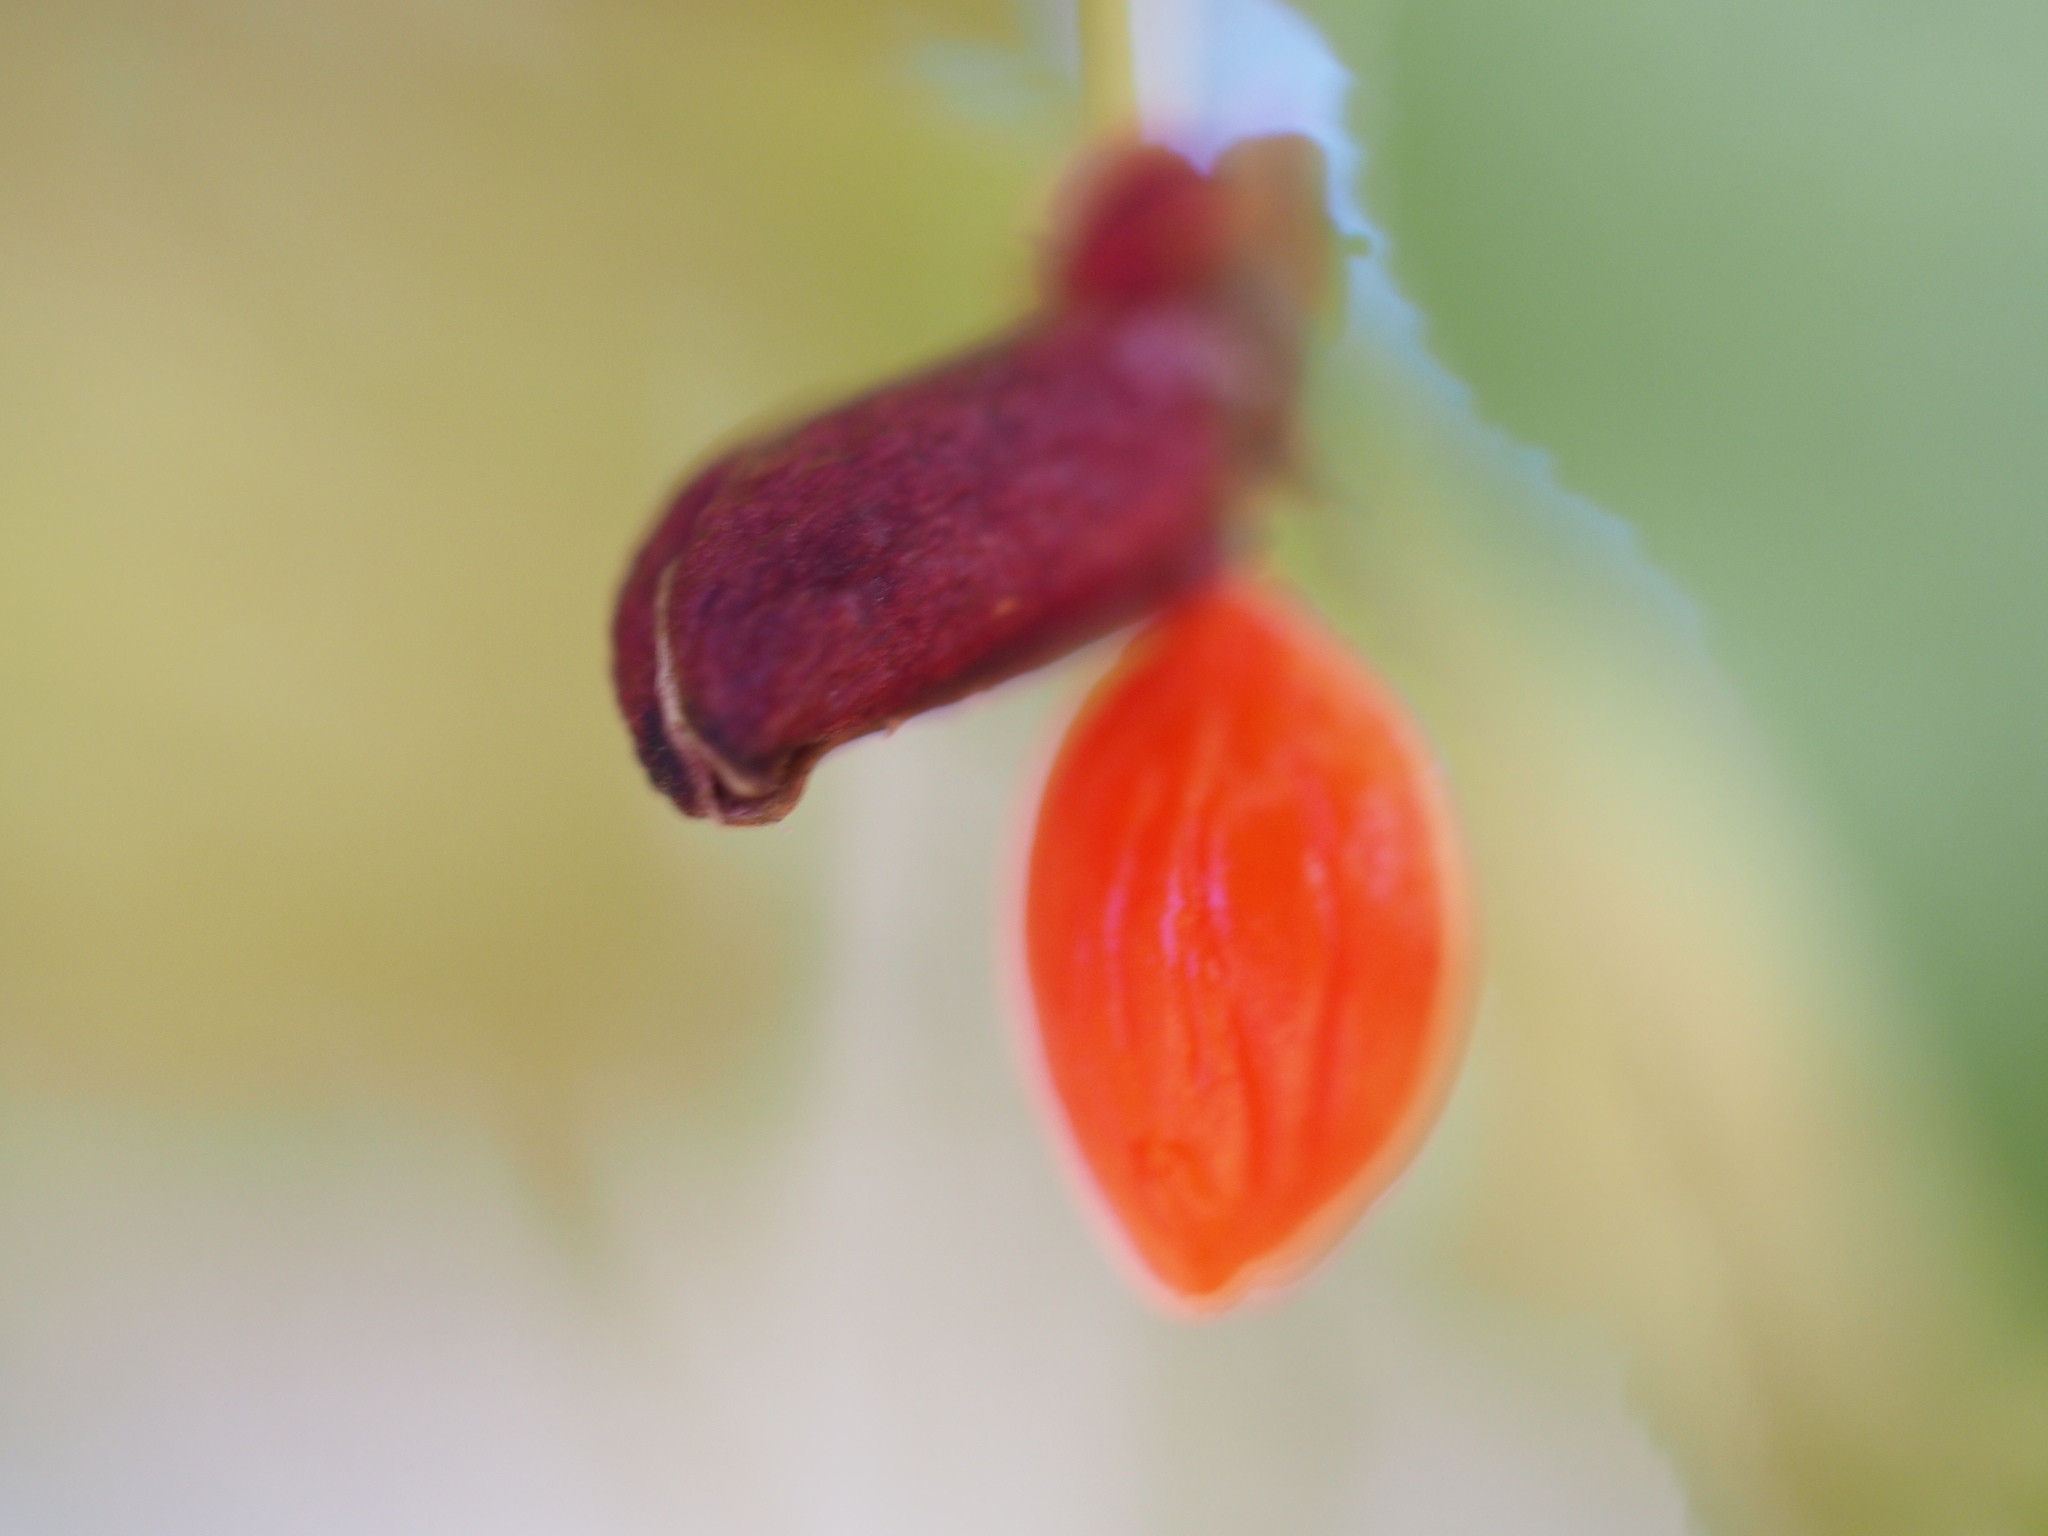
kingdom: Plantae
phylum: Tracheophyta
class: Magnoliopsida
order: Celastrales
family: Celastraceae
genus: Euonymus
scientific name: Euonymus alatus
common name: Winged euonymus
